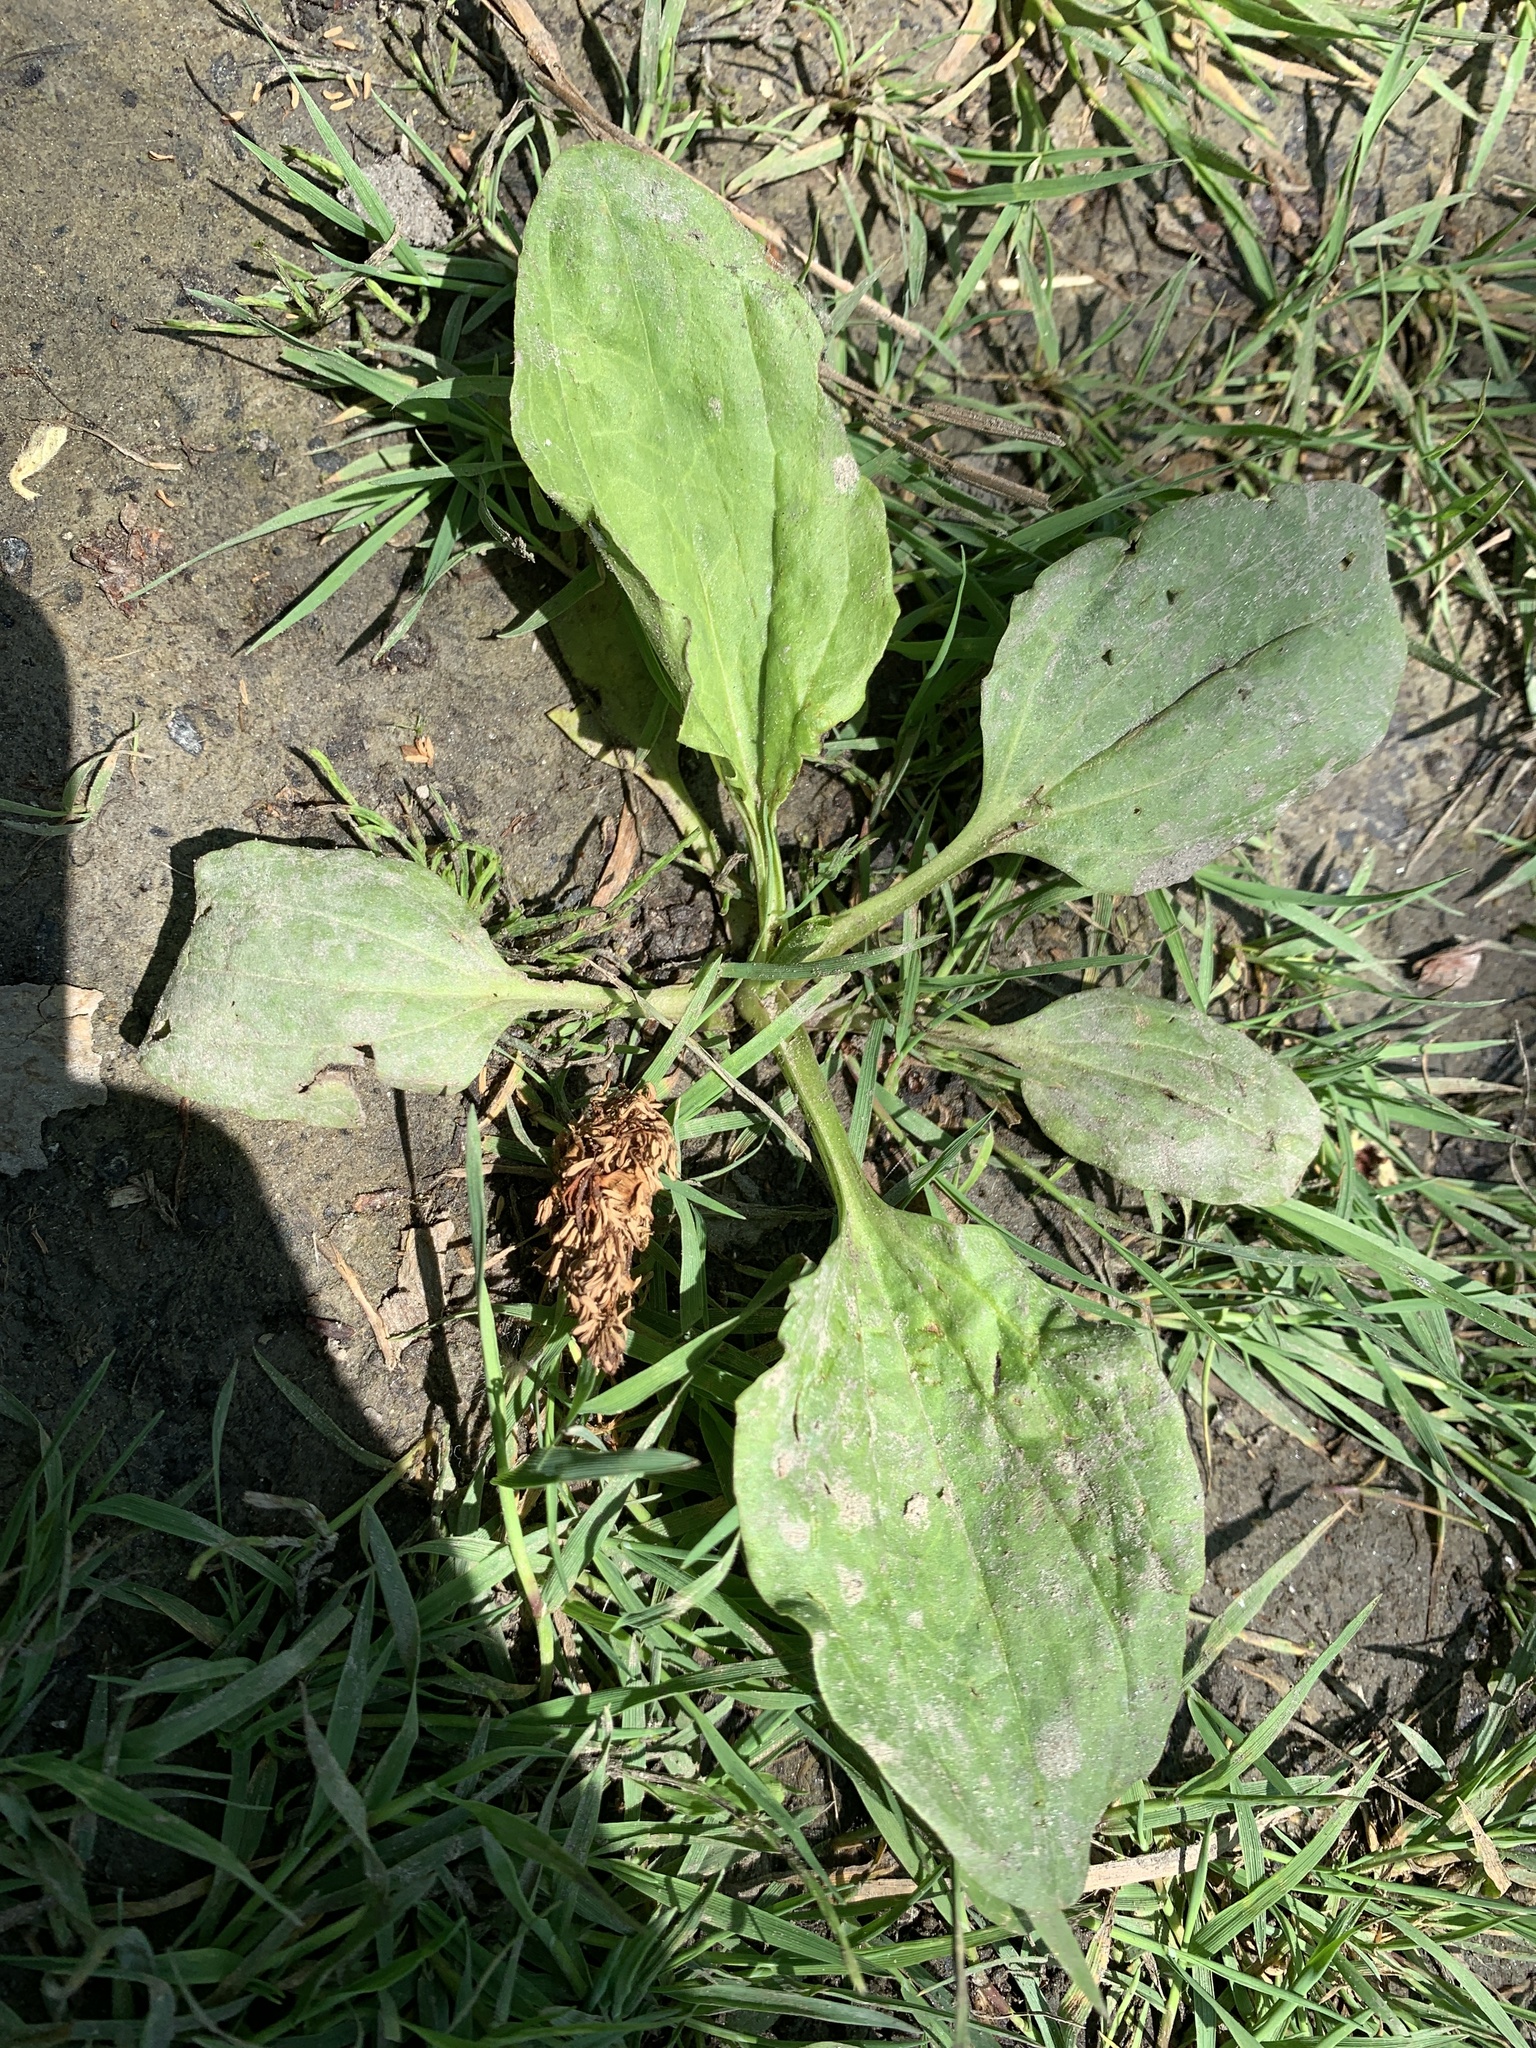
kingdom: Plantae
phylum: Tracheophyta
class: Magnoliopsida
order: Lamiales
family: Plantaginaceae
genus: Plantago
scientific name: Plantago major
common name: Common plantain
